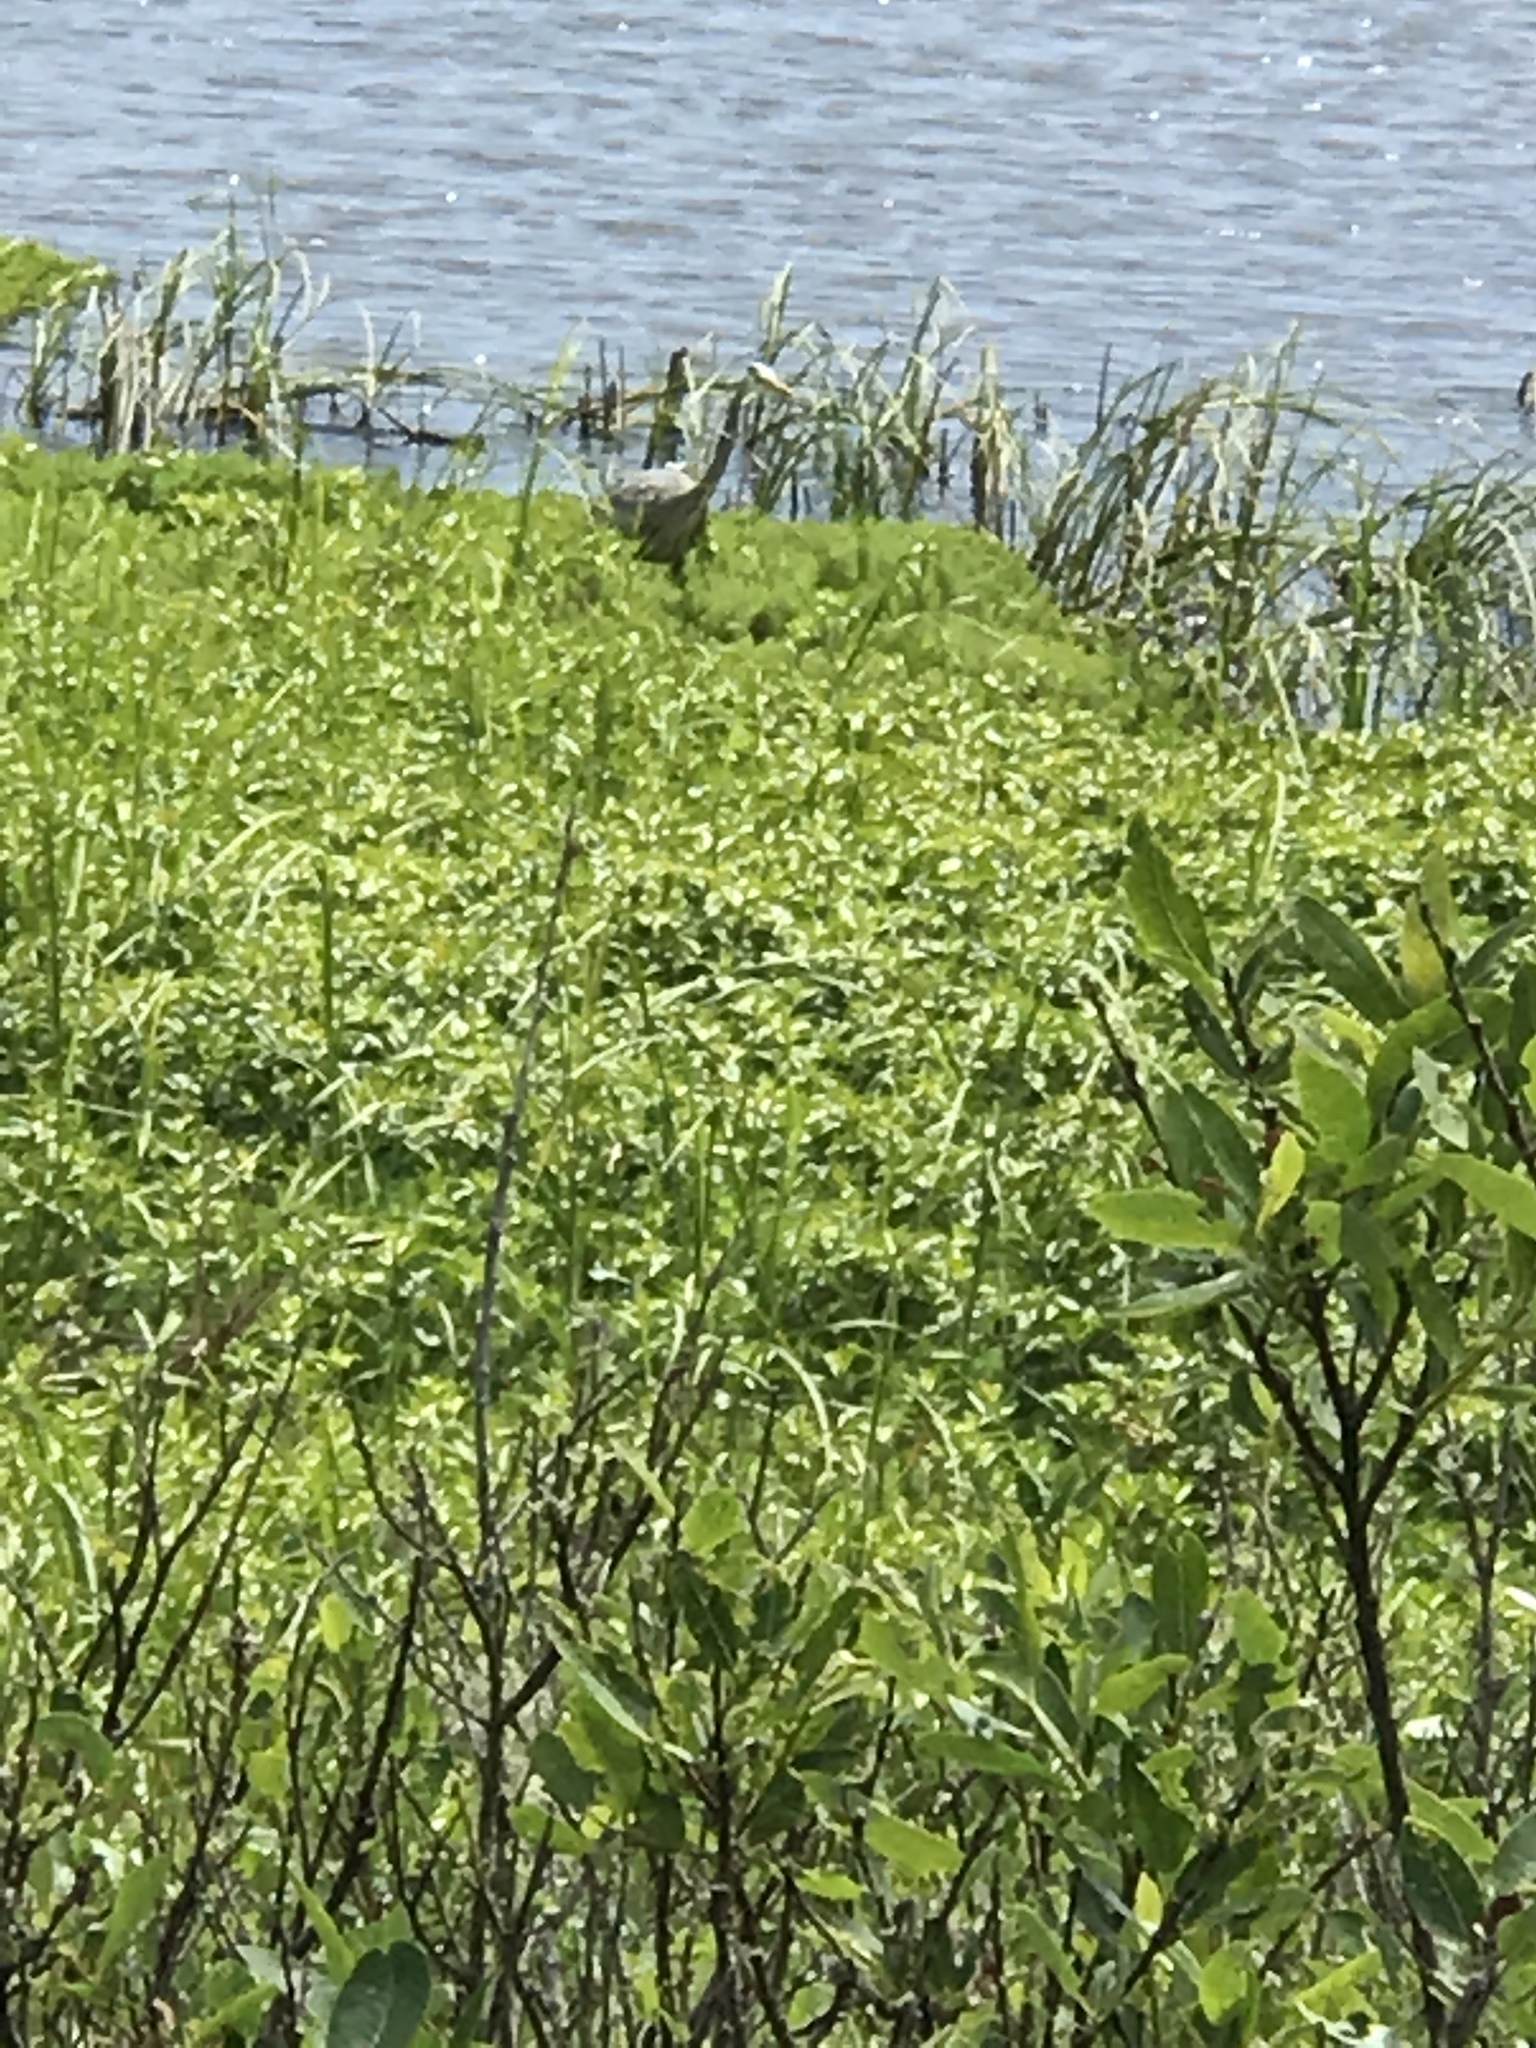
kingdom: Animalia
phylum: Chordata
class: Aves
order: Pelecaniformes
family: Ardeidae
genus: Ardea
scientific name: Ardea herodias
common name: Great blue heron
